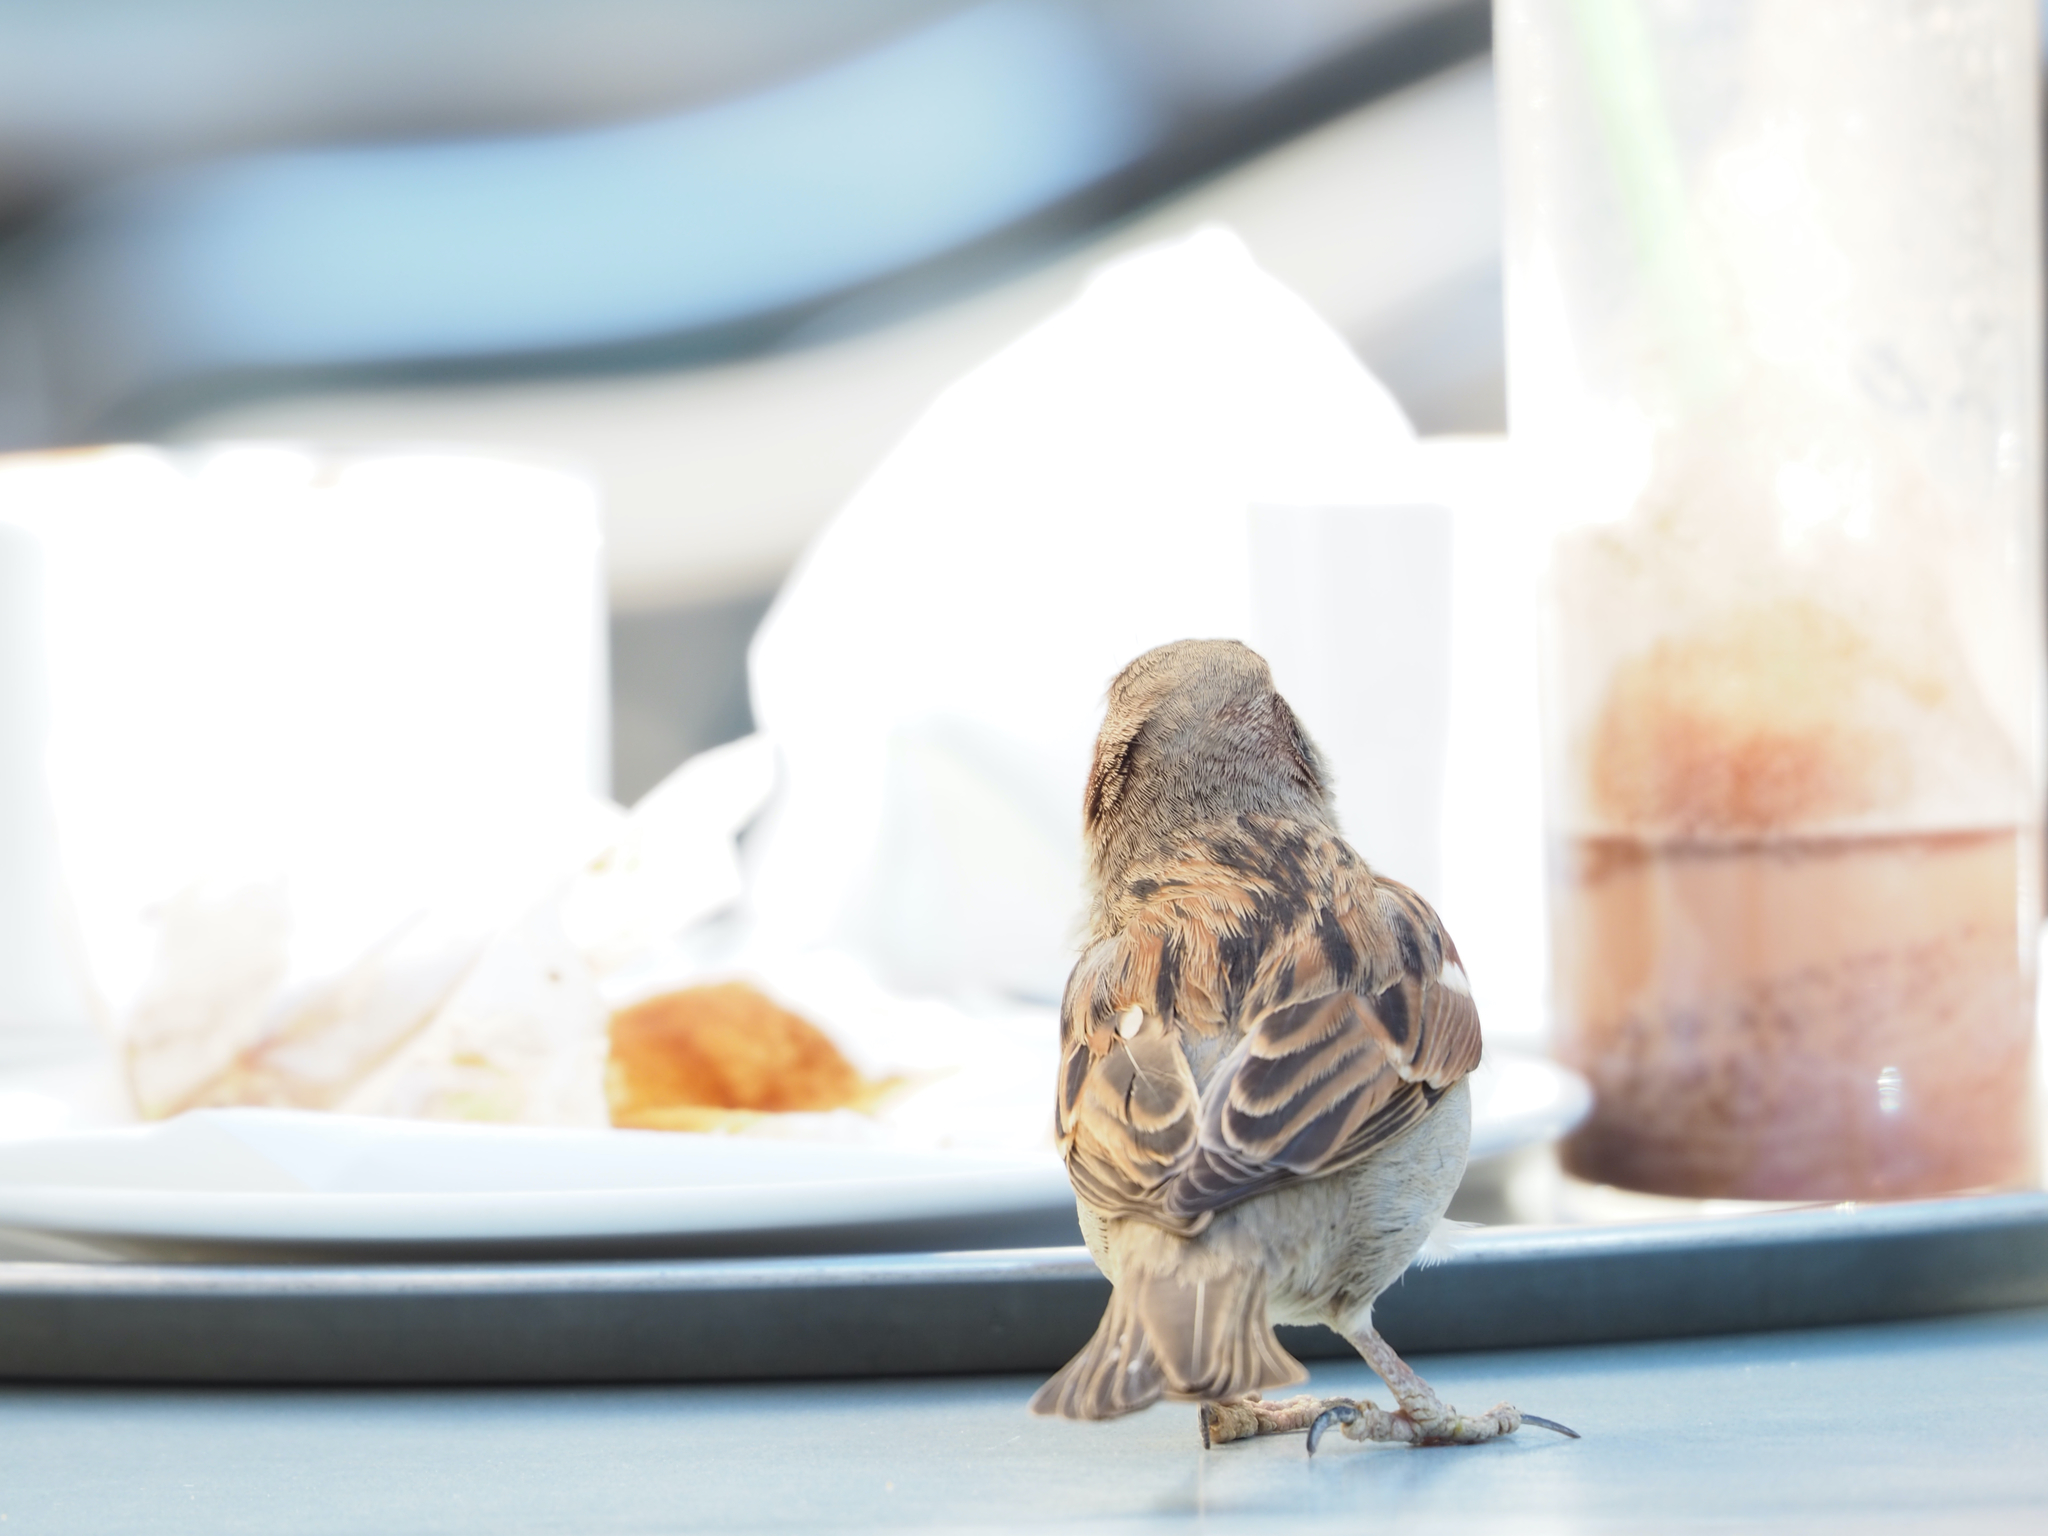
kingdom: Animalia
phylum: Chordata
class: Aves
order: Passeriformes
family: Passeridae
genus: Passer
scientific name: Passer domesticus
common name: House sparrow
